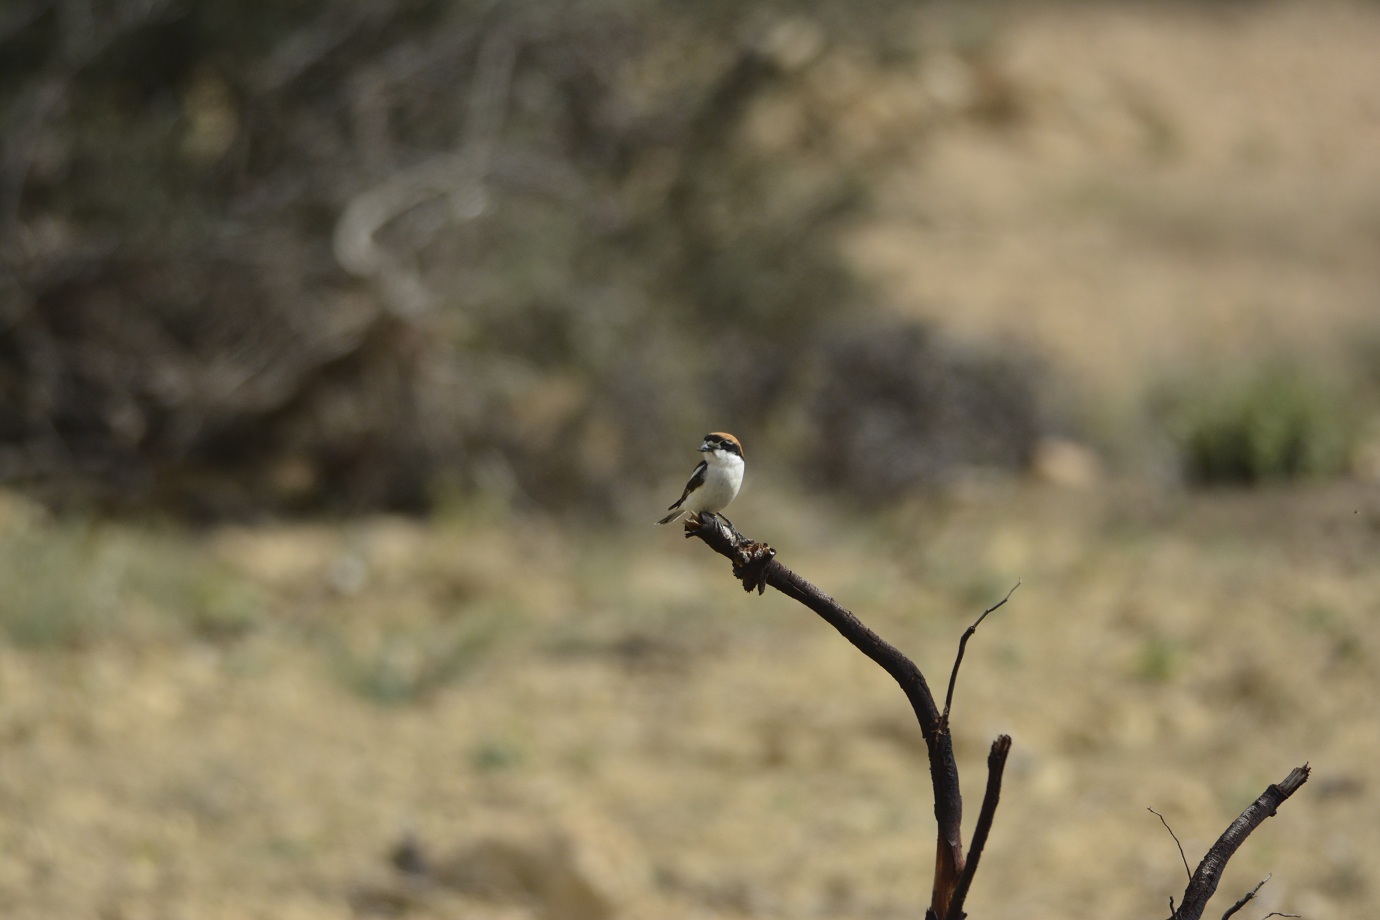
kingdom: Animalia
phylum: Chordata
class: Aves
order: Passeriformes
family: Laniidae
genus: Lanius
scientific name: Lanius senator
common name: Woodchat shrike
